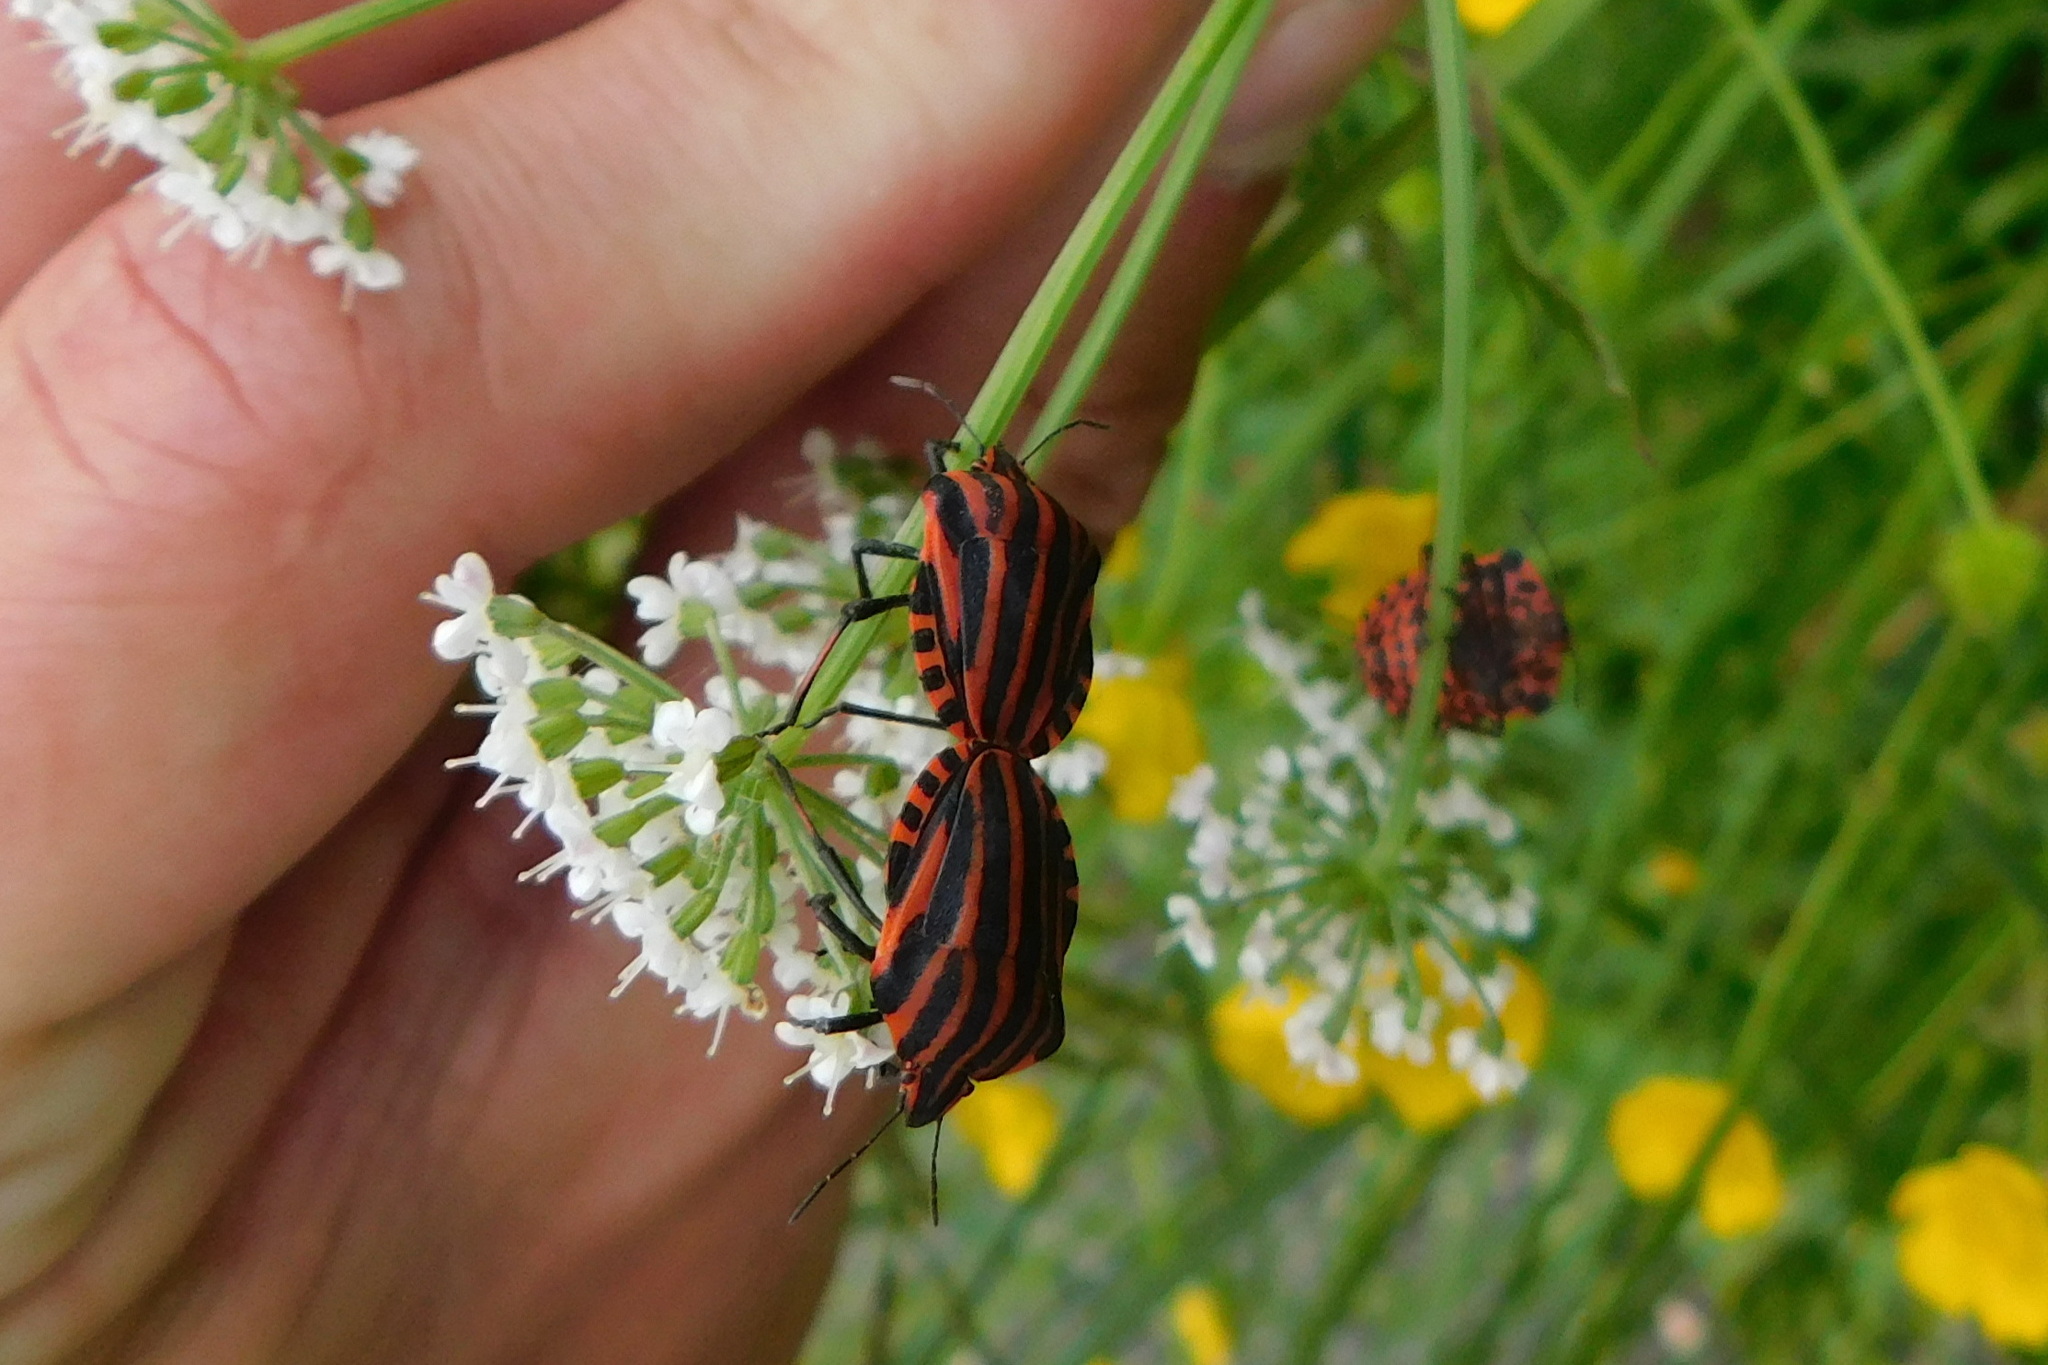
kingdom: Animalia
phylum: Arthropoda
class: Insecta
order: Hemiptera
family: Pentatomidae
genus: Graphosoma
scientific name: Graphosoma italicum
